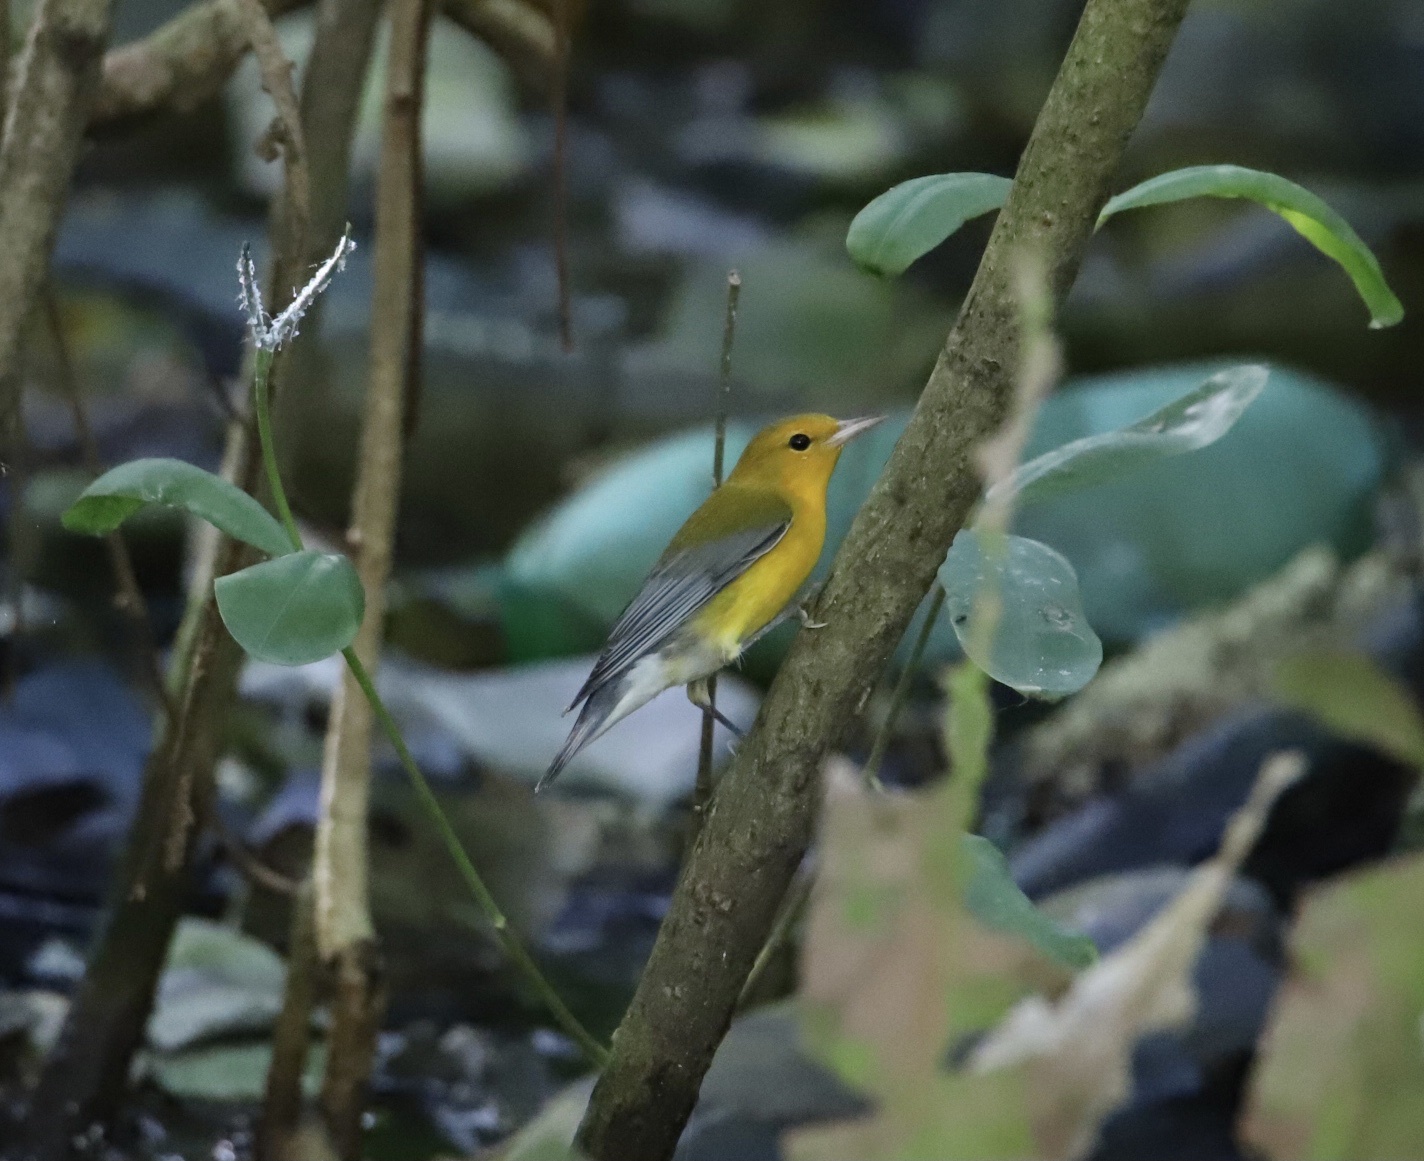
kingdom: Animalia
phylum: Chordata
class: Aves
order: Passeriformes
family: Parulidae
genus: Protonotaria
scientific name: Protonotaria citrea
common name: Prothonotary warbler
